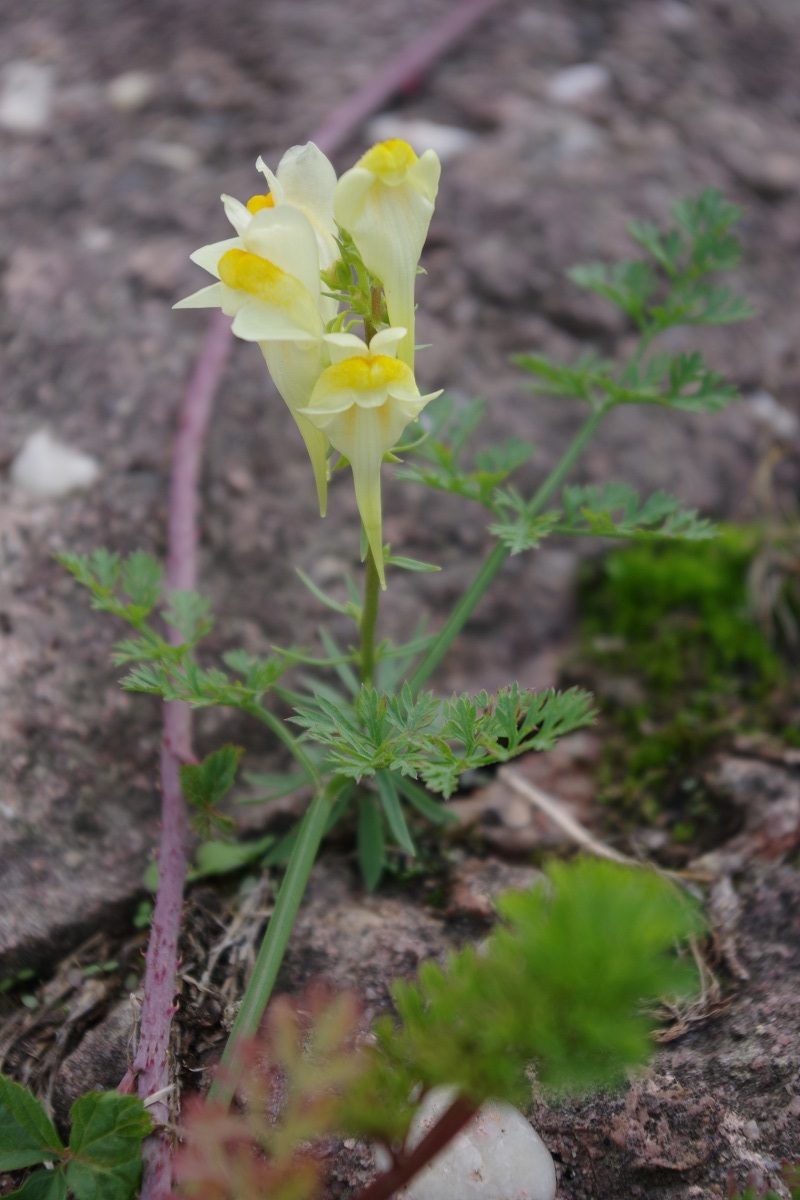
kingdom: Plantae
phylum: Tracheophyta
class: Magnoliopsida
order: Lamiales
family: Plantaginaceae
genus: Linaria
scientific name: Linaria vulgaris
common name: Butter and eggs
